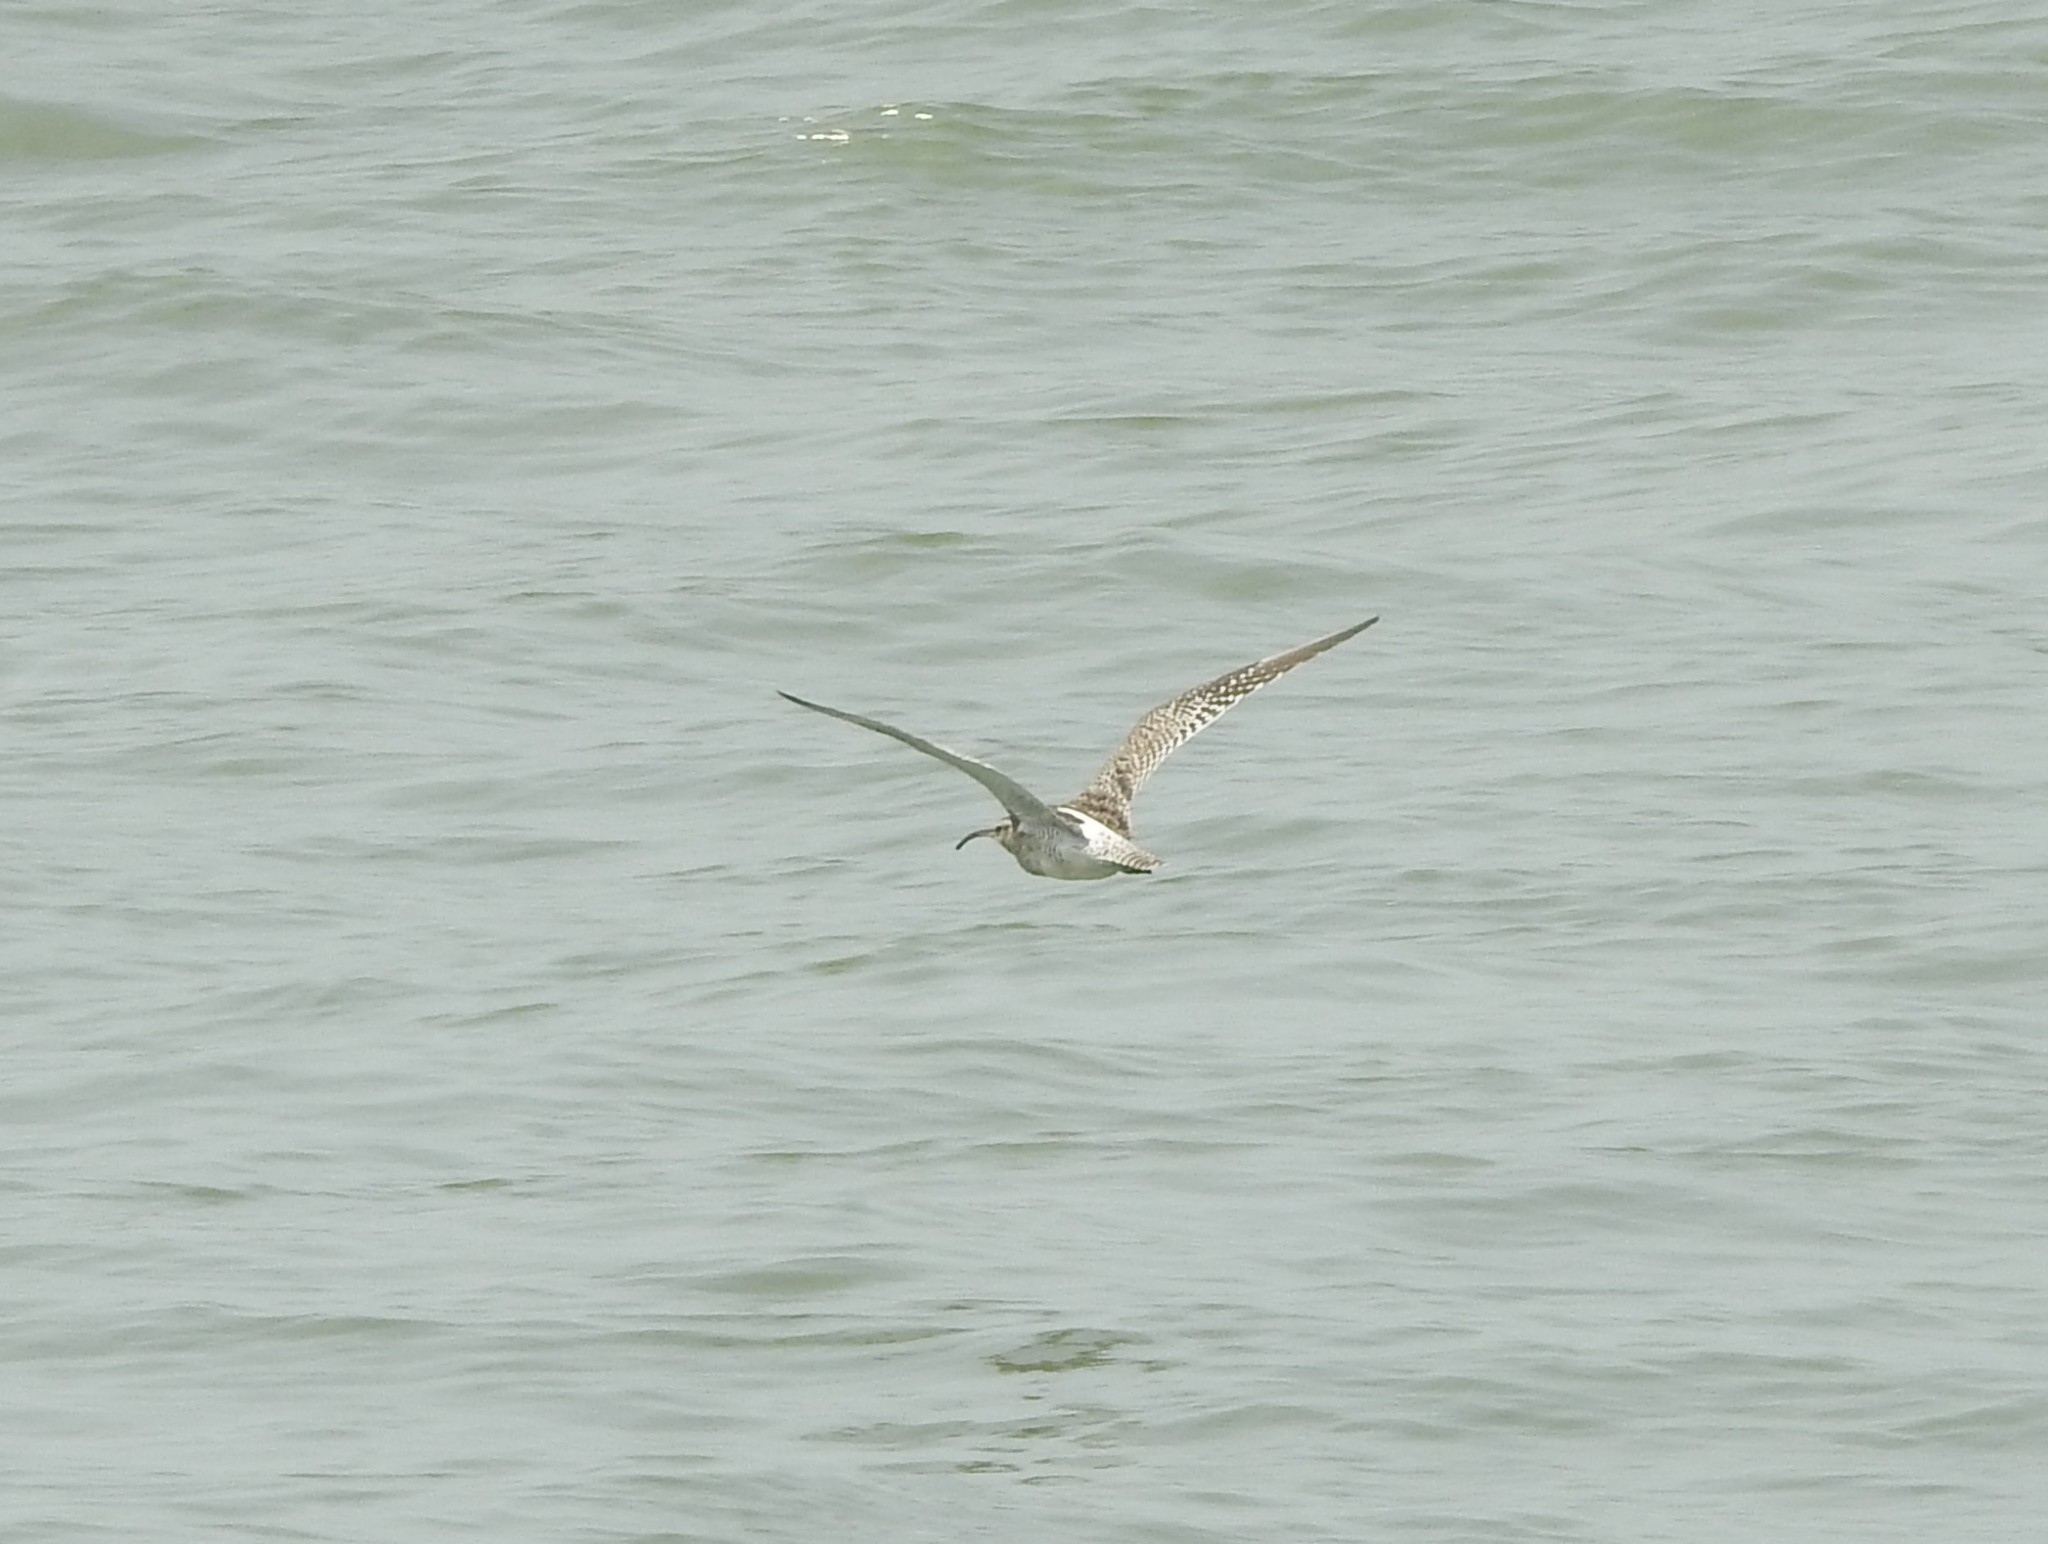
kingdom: Animalia
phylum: Chordata
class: Aves
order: Charadriiformes
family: Scolopacidae
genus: Numenius
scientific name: Numenius phaeopus
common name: Whimbrel
